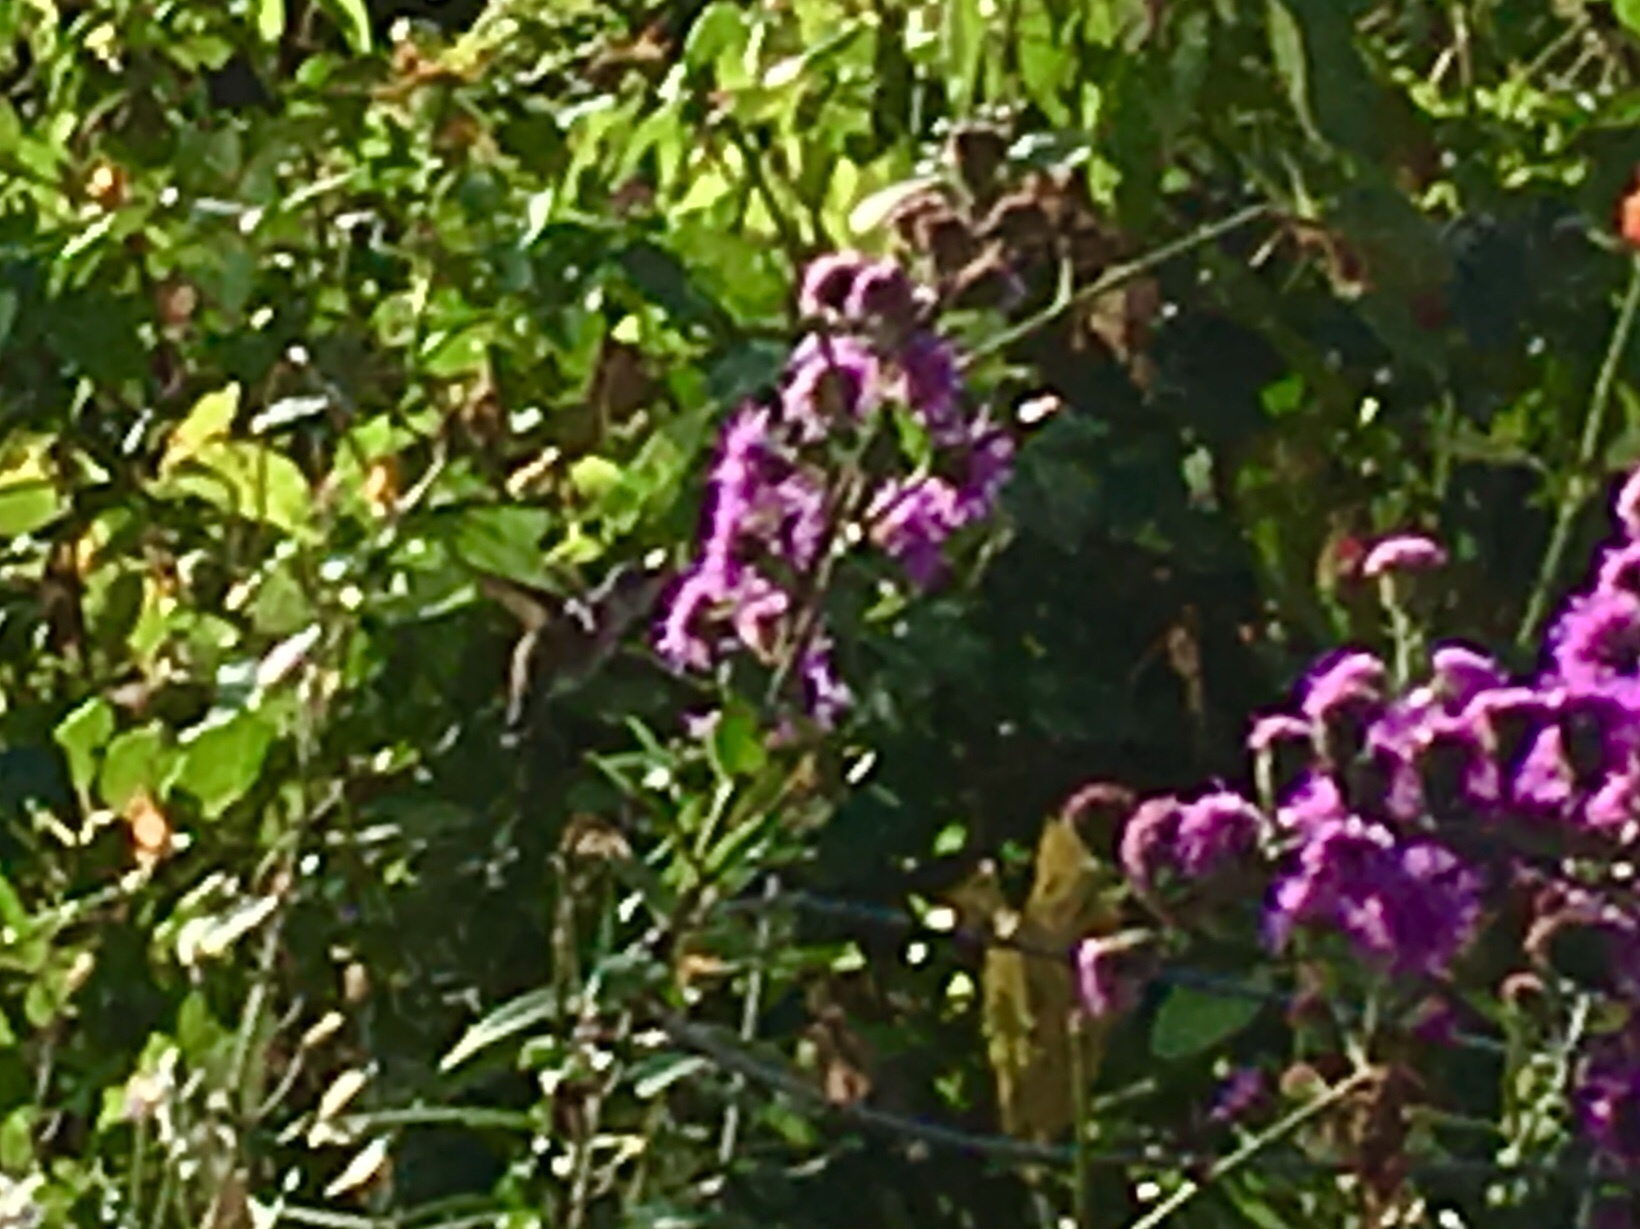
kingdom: Animalia
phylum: Chordata
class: Aves
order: Apodiformes
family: Trochilidae
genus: Archilochus
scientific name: Archilochus colubris
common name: Ruby-throated hummingbird
